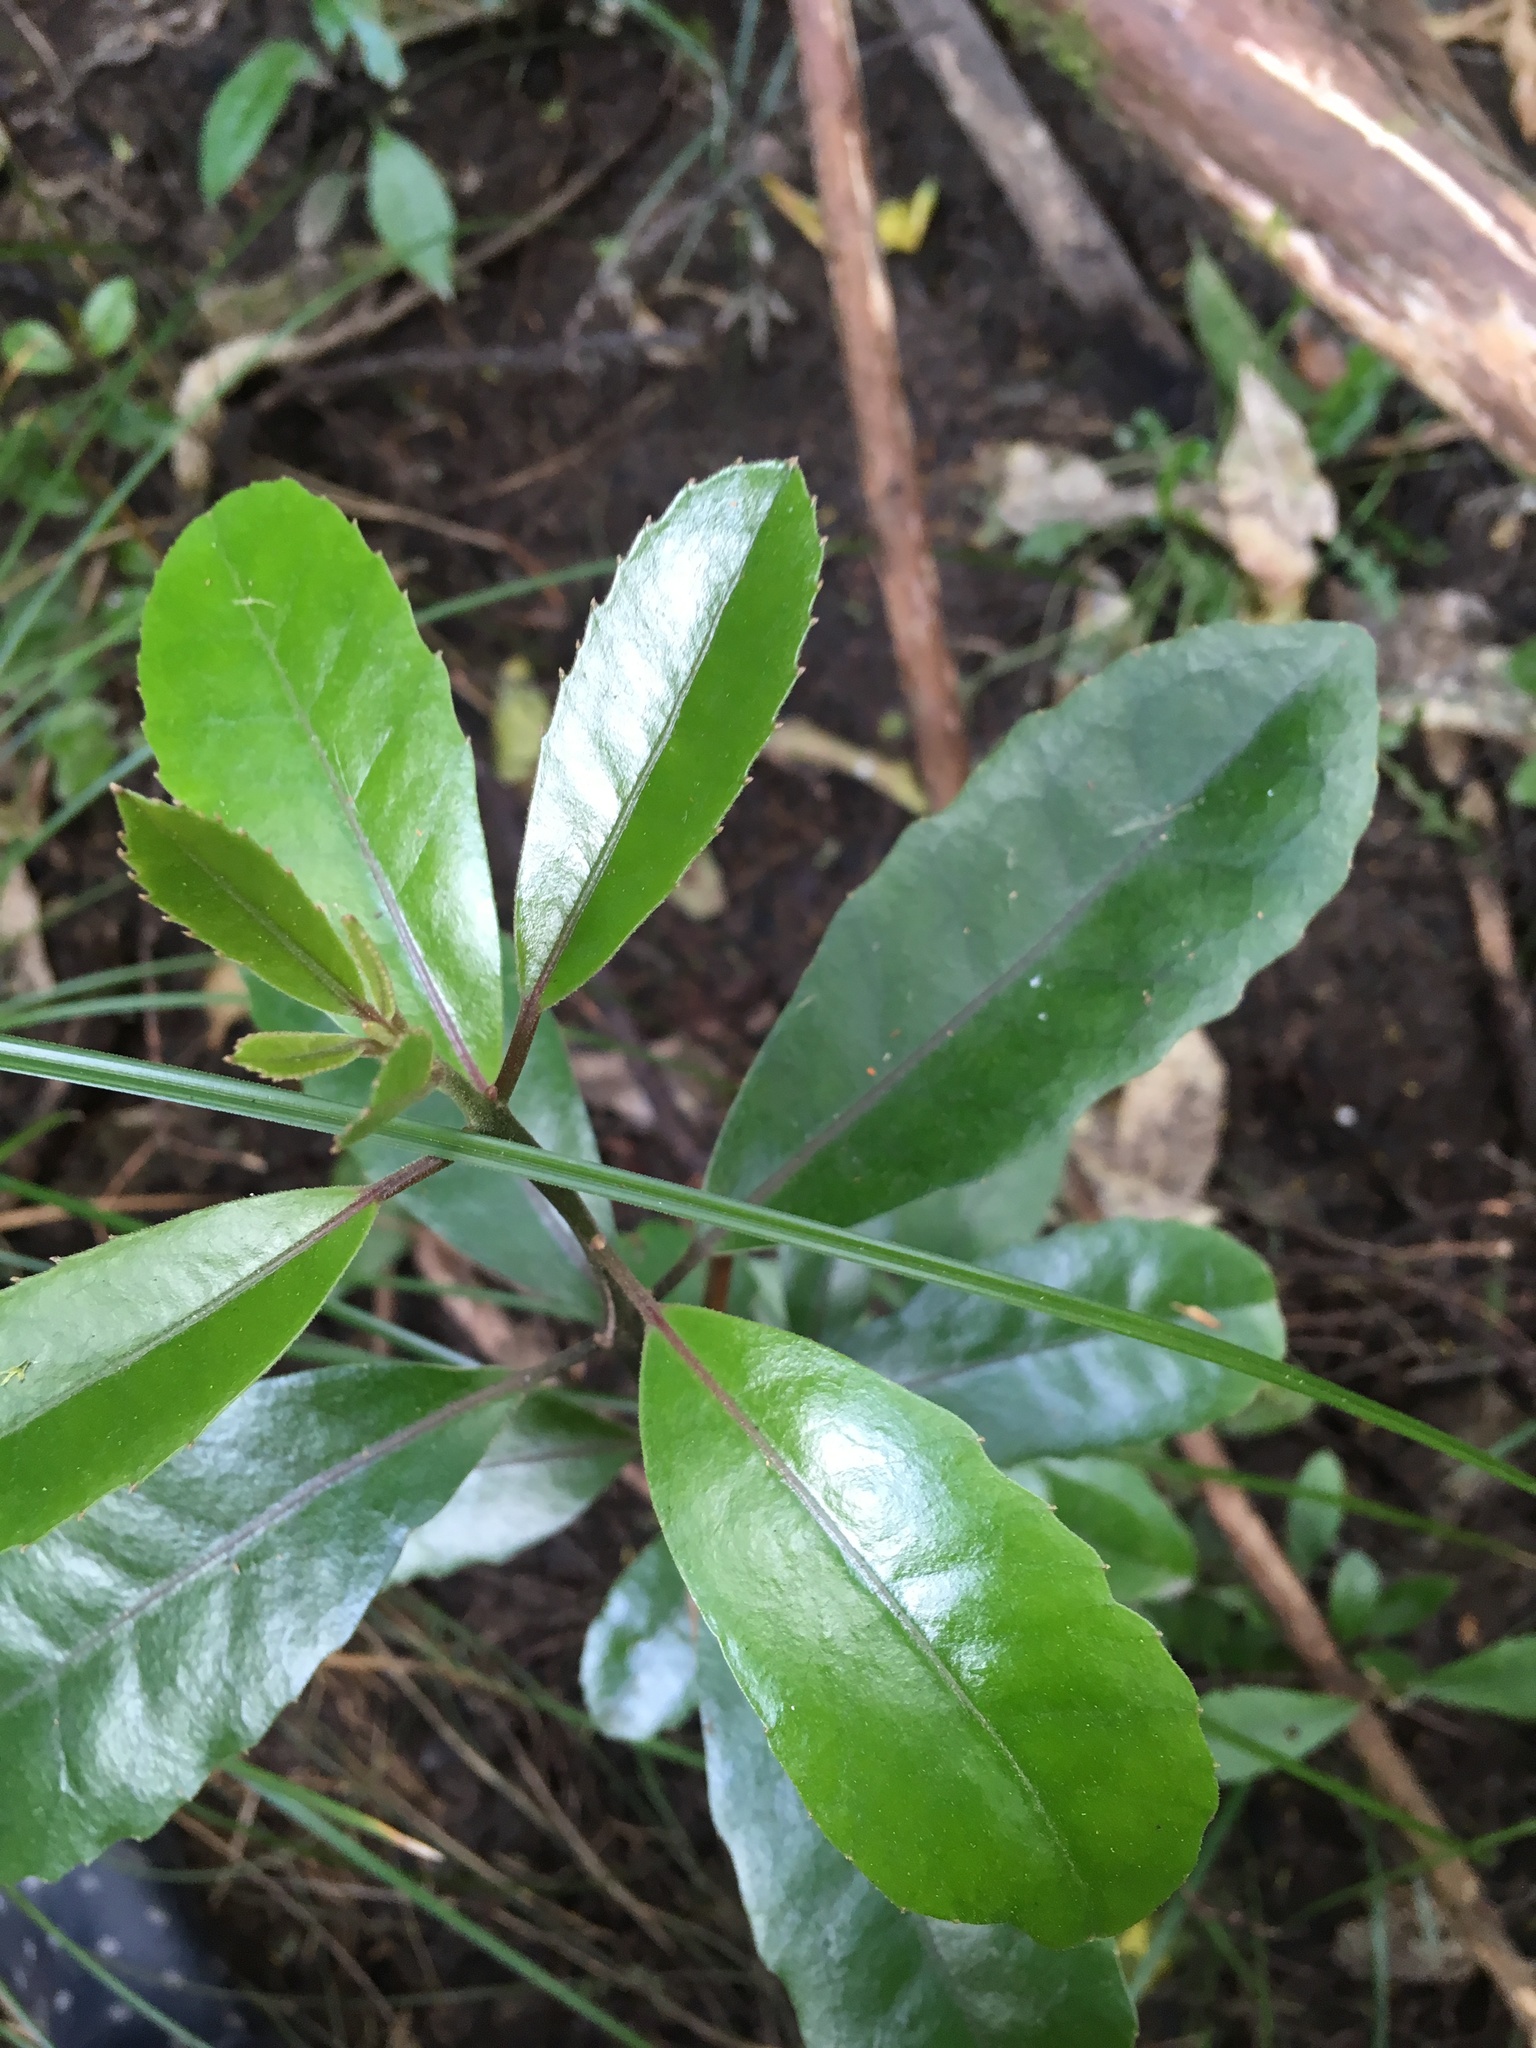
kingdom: Plantae
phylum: Tracheophyta
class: Magnoliopsida
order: Laurales
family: Monimiaceae
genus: Hedycarya
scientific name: Hedycarya arborea
